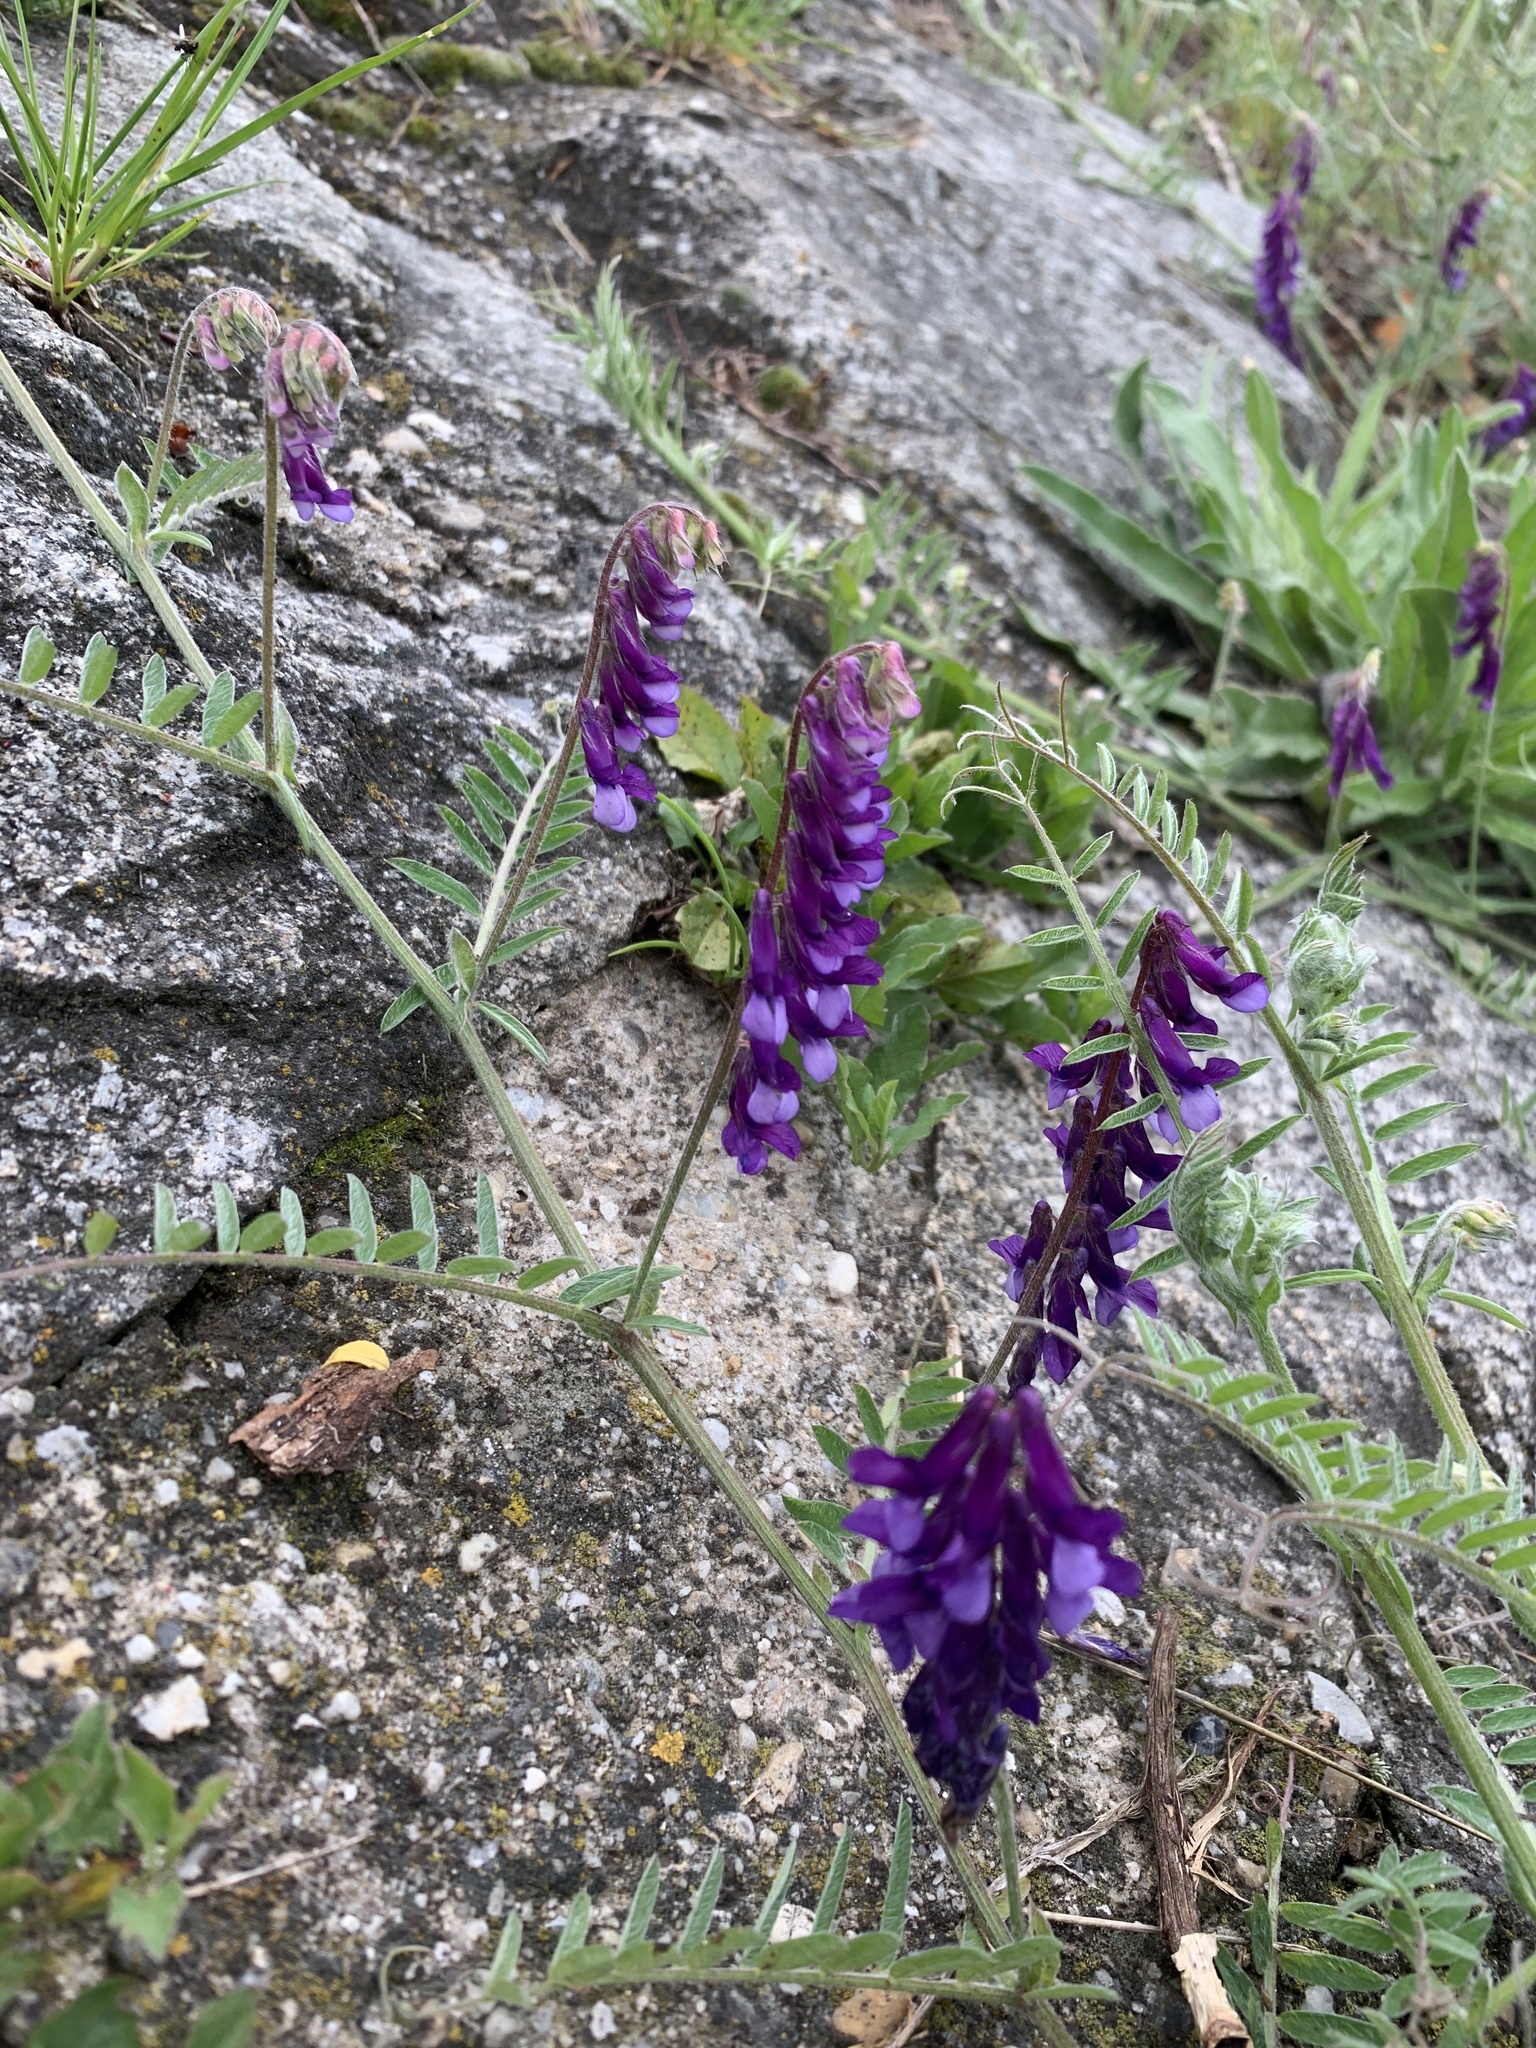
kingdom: Plantae
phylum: Tracheophyta
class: Magnoliopsida
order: Fabales
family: Fabaceae
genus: Vicia
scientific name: Vicia villosa
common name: Fodder vetch
